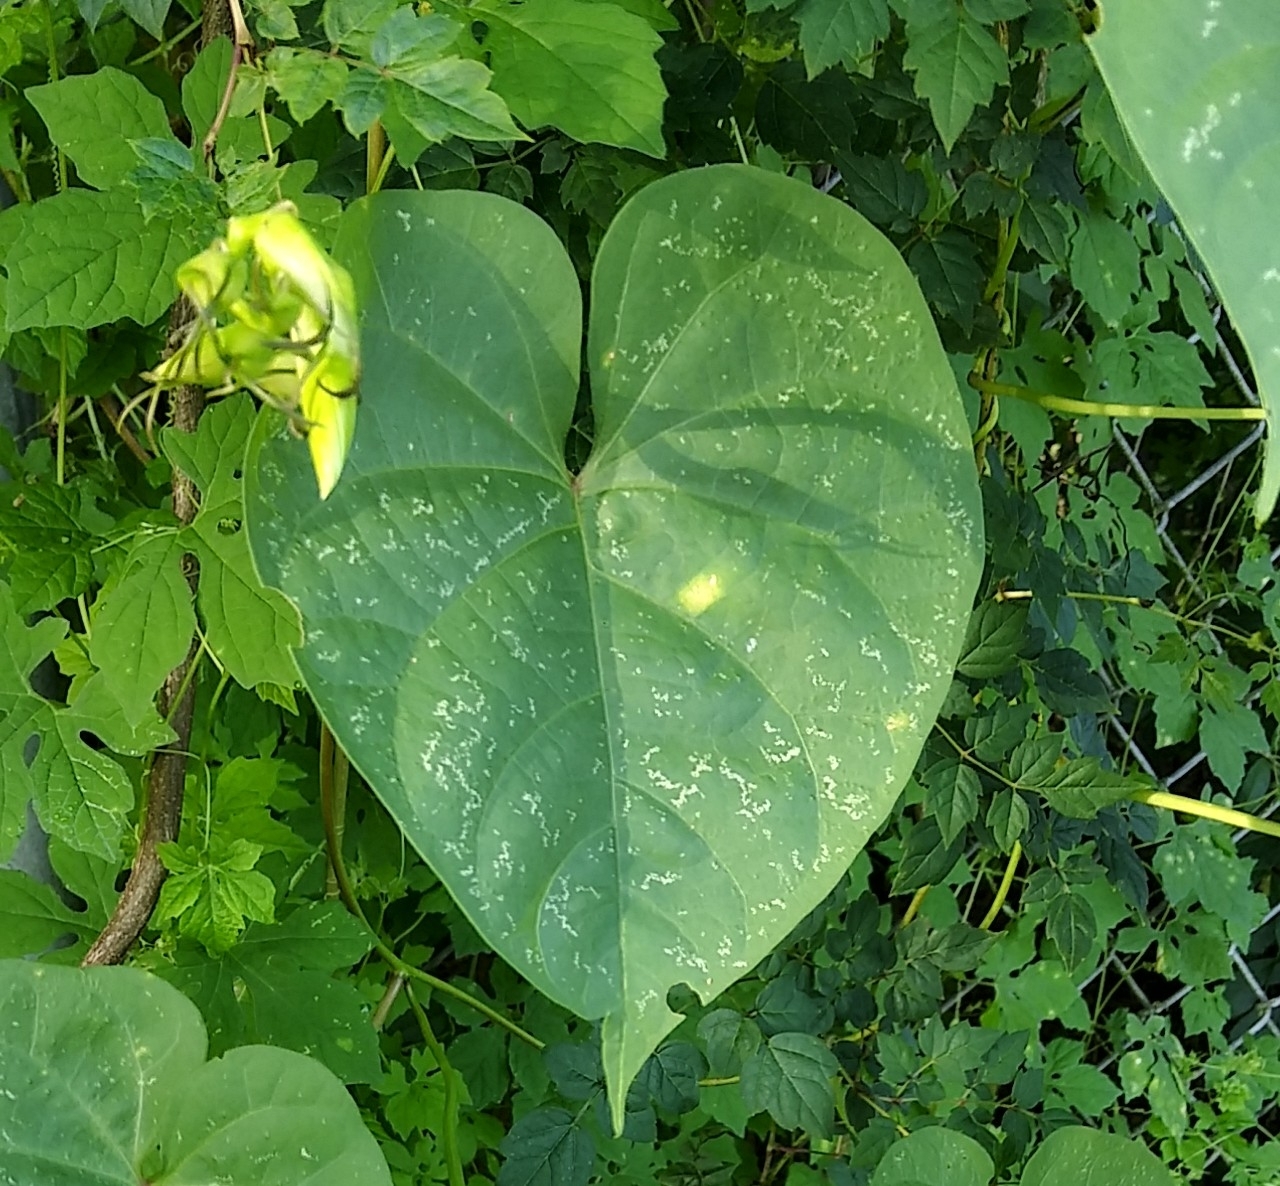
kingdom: Plantae
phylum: Tracheophyta
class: Magnoliopsida
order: Solanales
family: Convolvulaceae
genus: Ipomoea
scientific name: Ipomoea alba
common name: Moonflower
